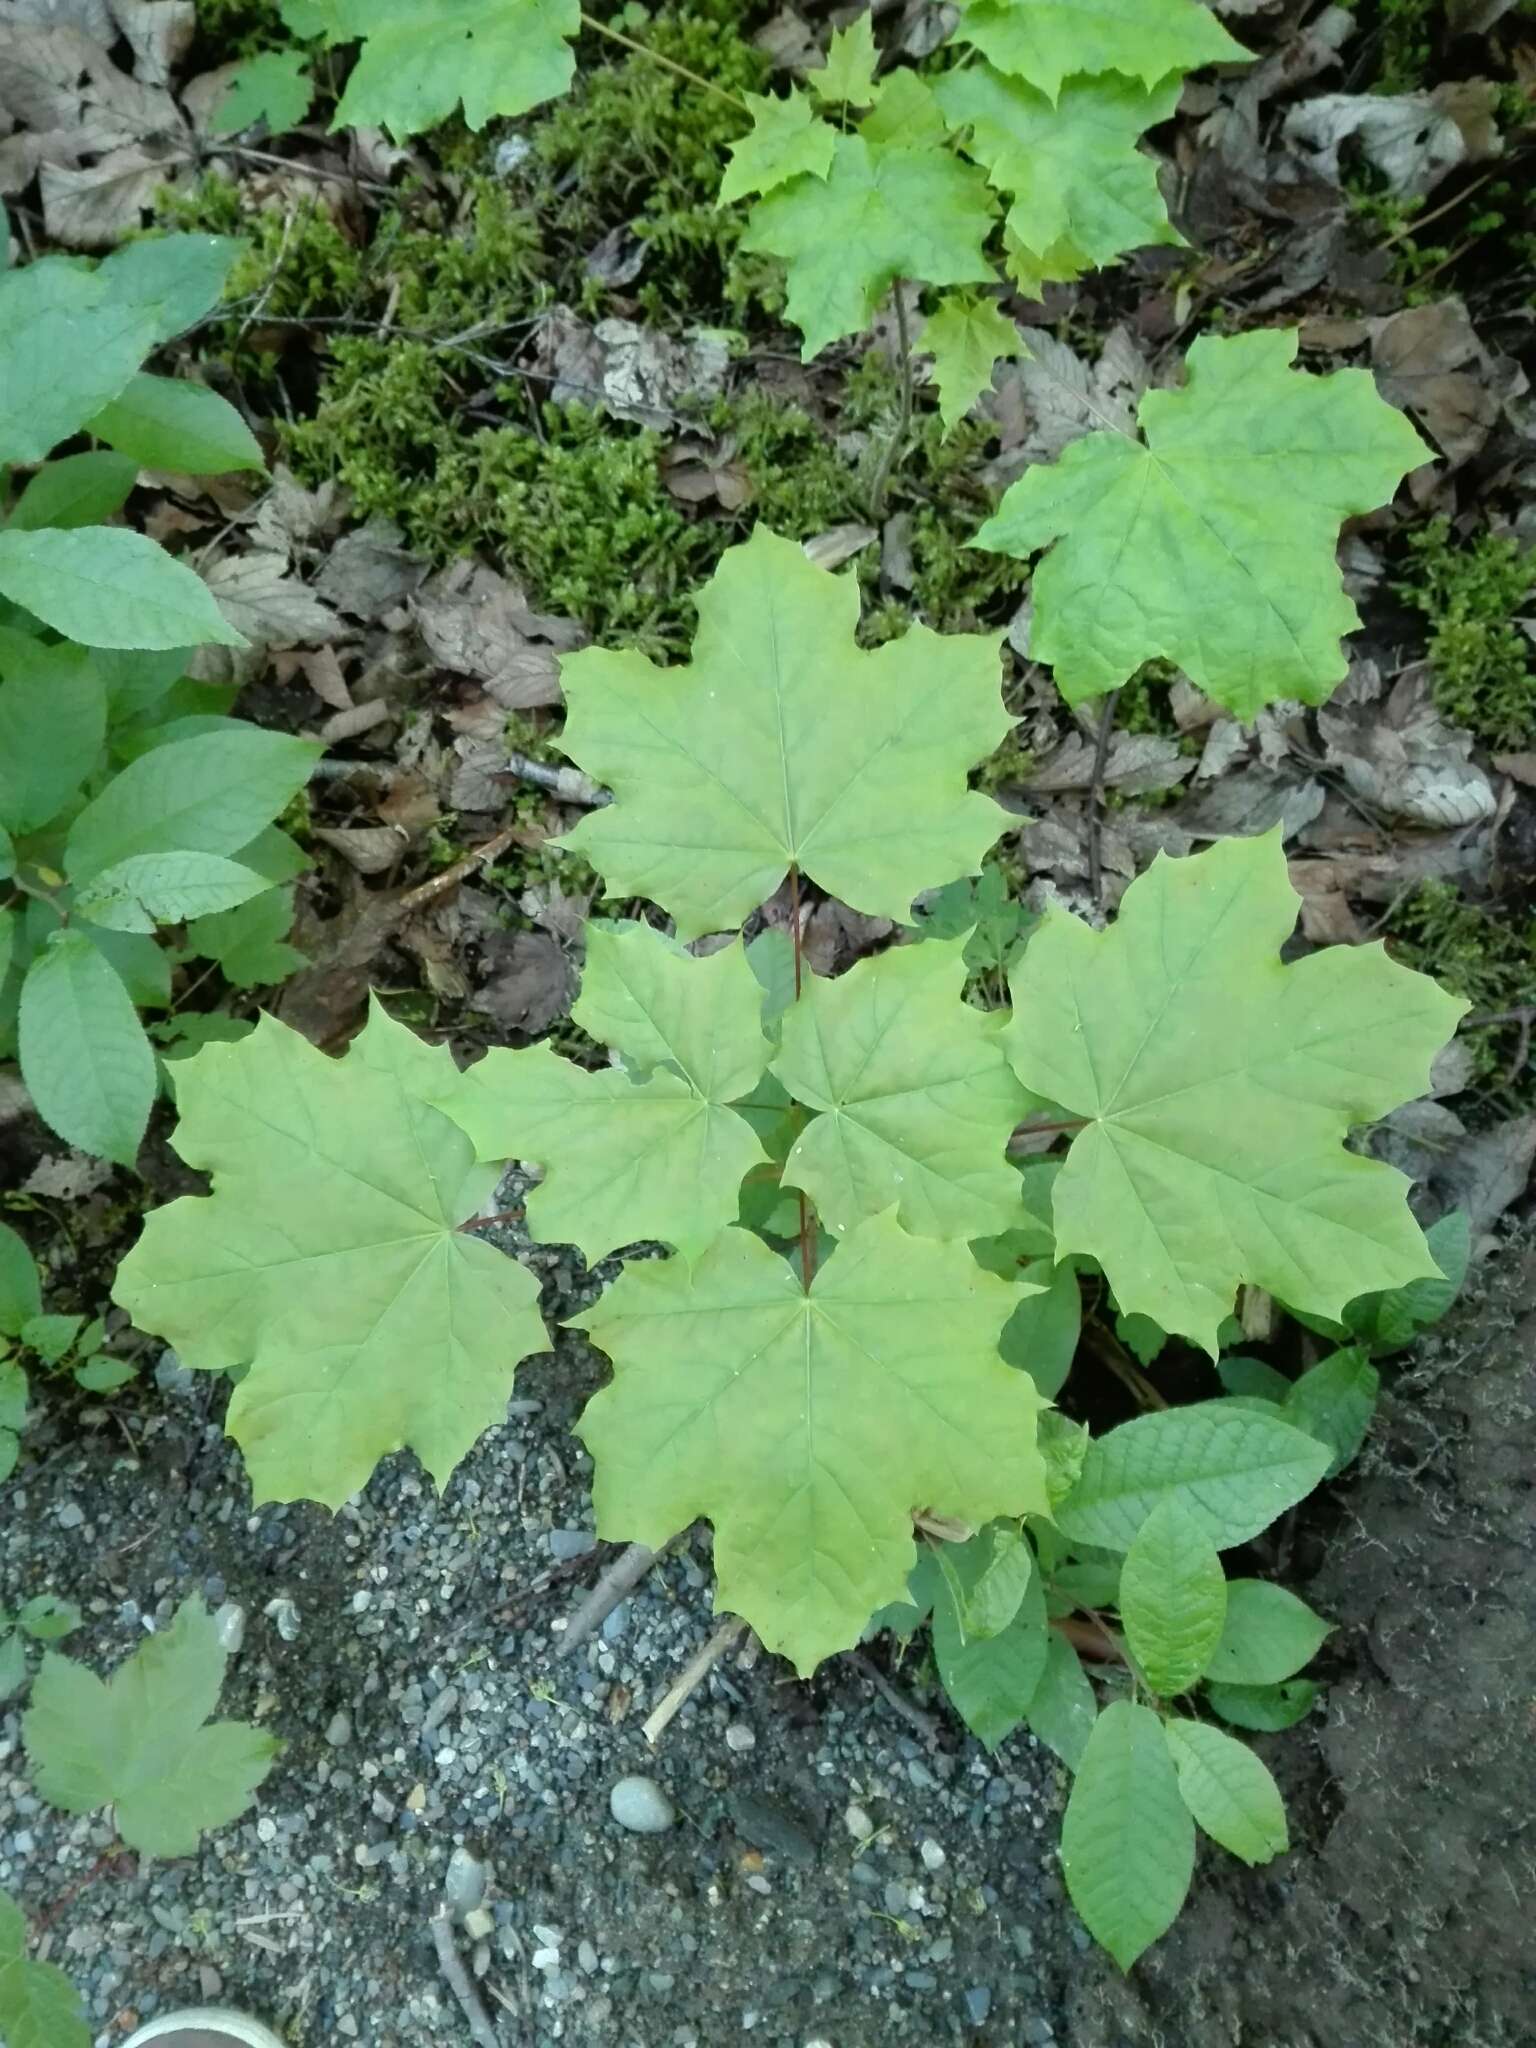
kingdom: Plantae
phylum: Tracheophyta
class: Magnoliopsida
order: Sapindales
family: Sapindaceae
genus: Acer
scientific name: Acer platanoides
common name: Norway maple
